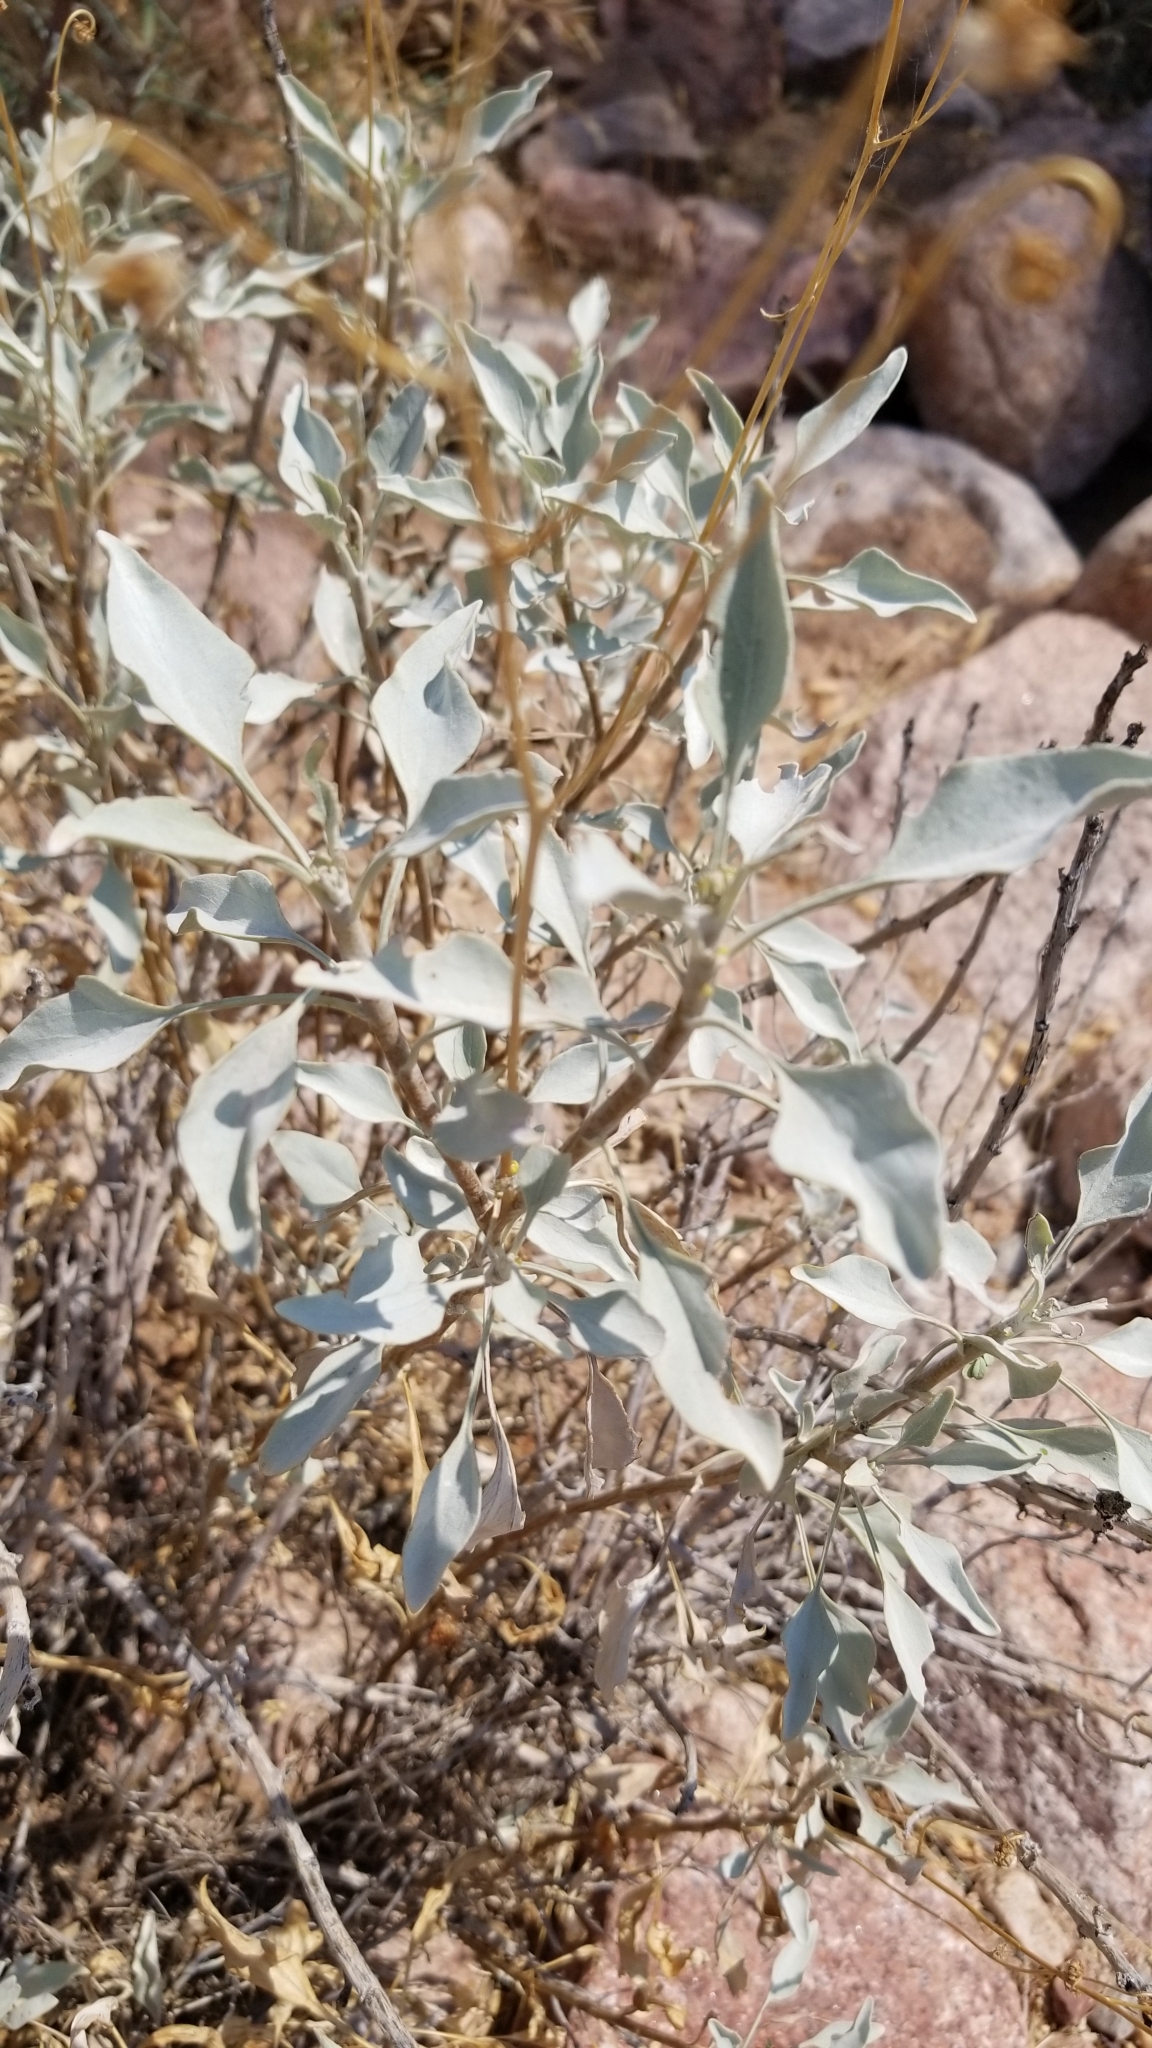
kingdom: Plantae
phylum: Tracheophyta
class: Magnoliopsida
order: Asterales
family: Asteraceae
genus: Encelia
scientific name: Encelia farinosa
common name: Brittlebush
